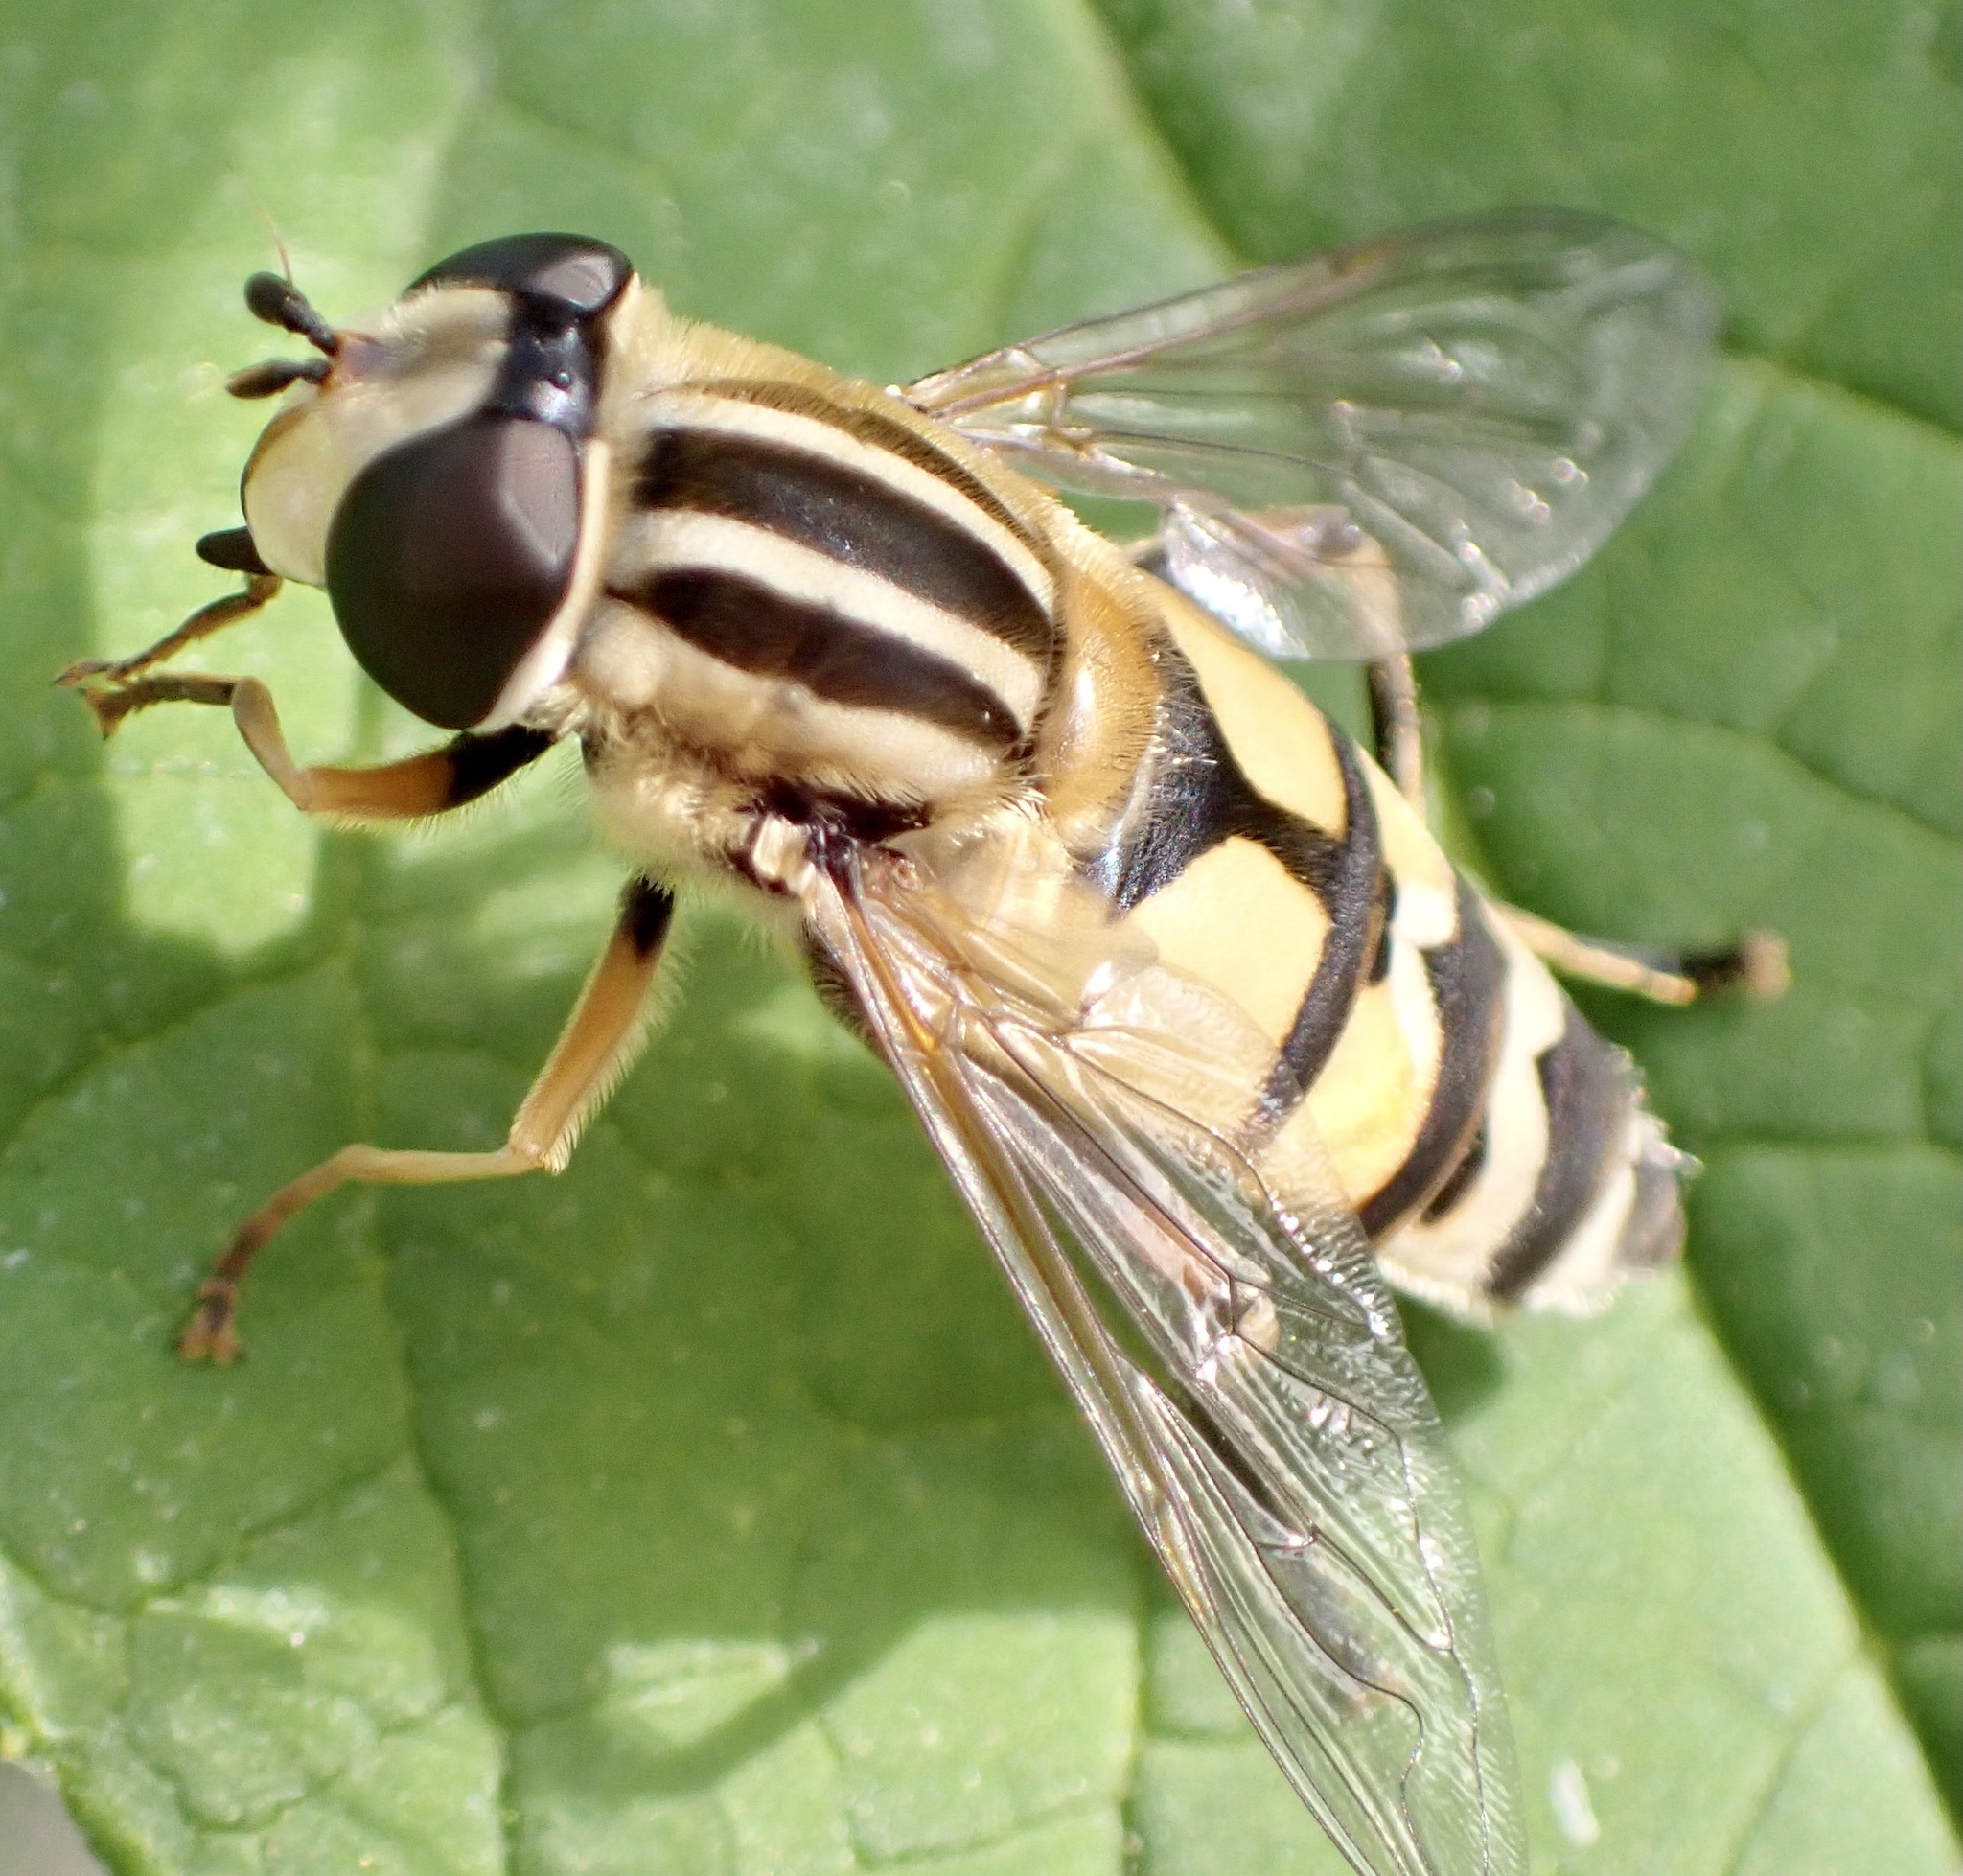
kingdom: Animalia
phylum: Arthropoda
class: Insecta
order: Diptera
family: Syrphidae
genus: Helophilus
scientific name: Helophilus trivittatus
